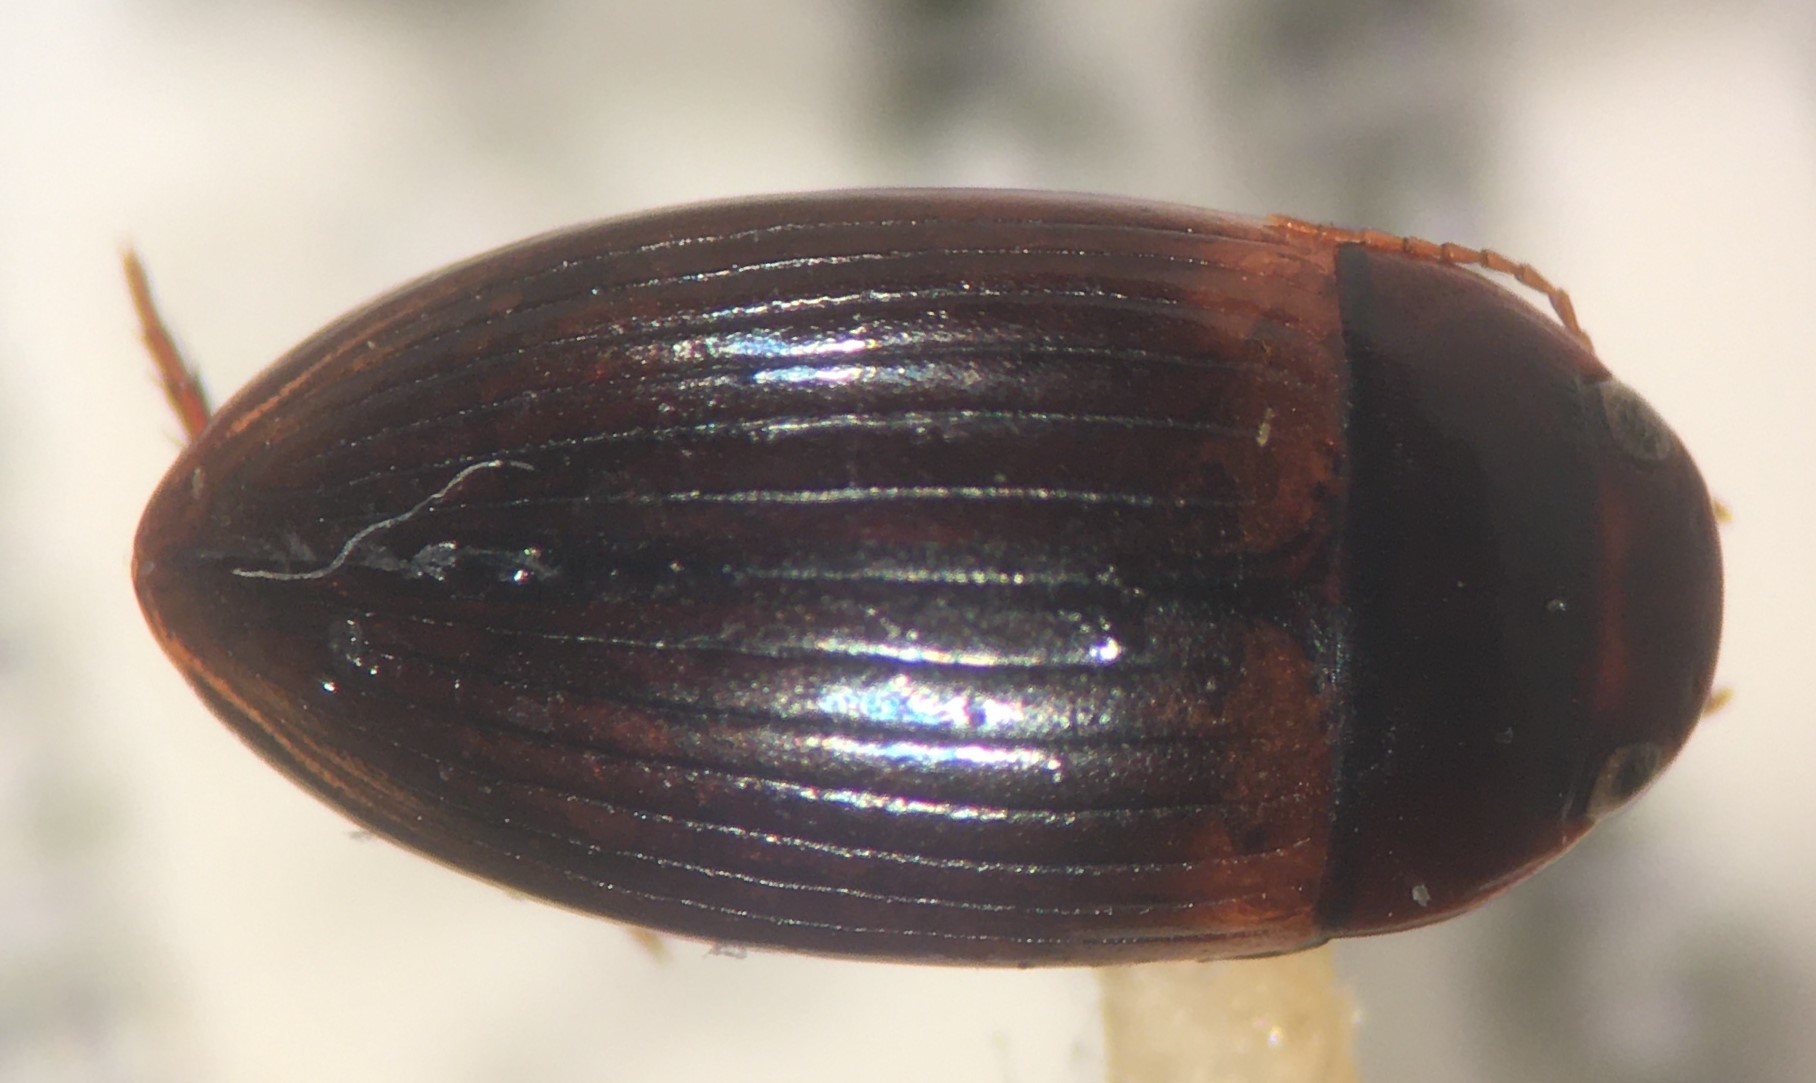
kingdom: Animalia
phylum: Arthropoda
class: Insecta
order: Coleoptera
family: Dytiscidae
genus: Copelatus
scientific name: Copelatus cubaensis
